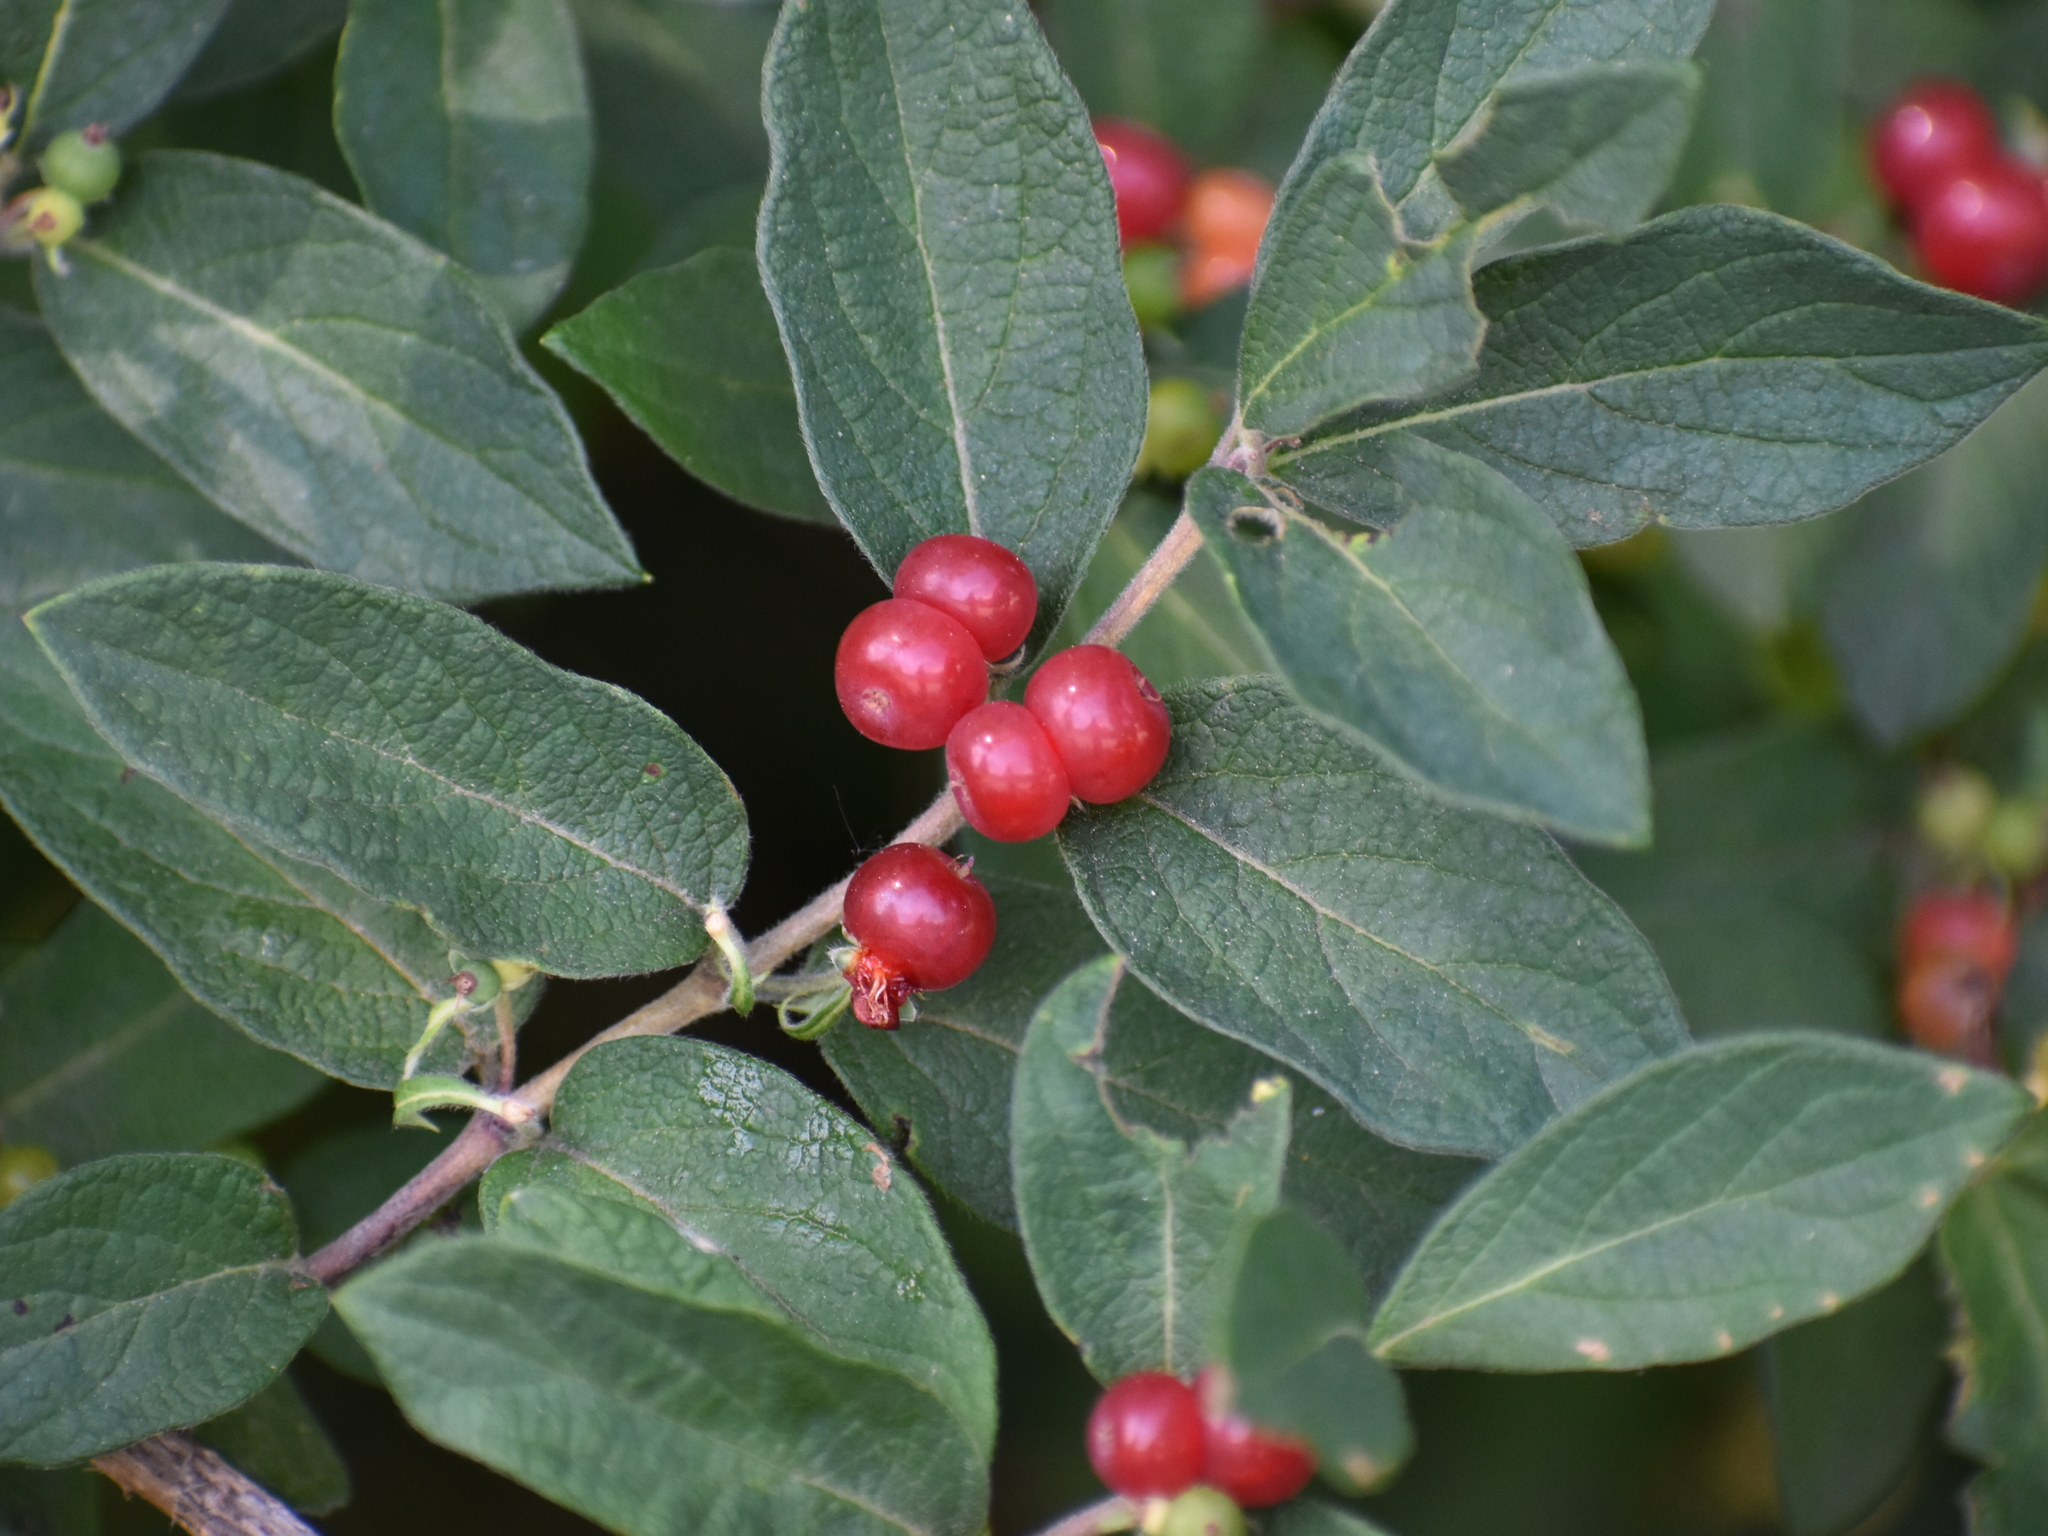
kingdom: Plantae
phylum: Tracheophyta
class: Magnoliopsida
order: Dipsacales
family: Caprifoliaceae
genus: Lonicera
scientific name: Lonicera morrowii
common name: Morrow's honeysuckle
